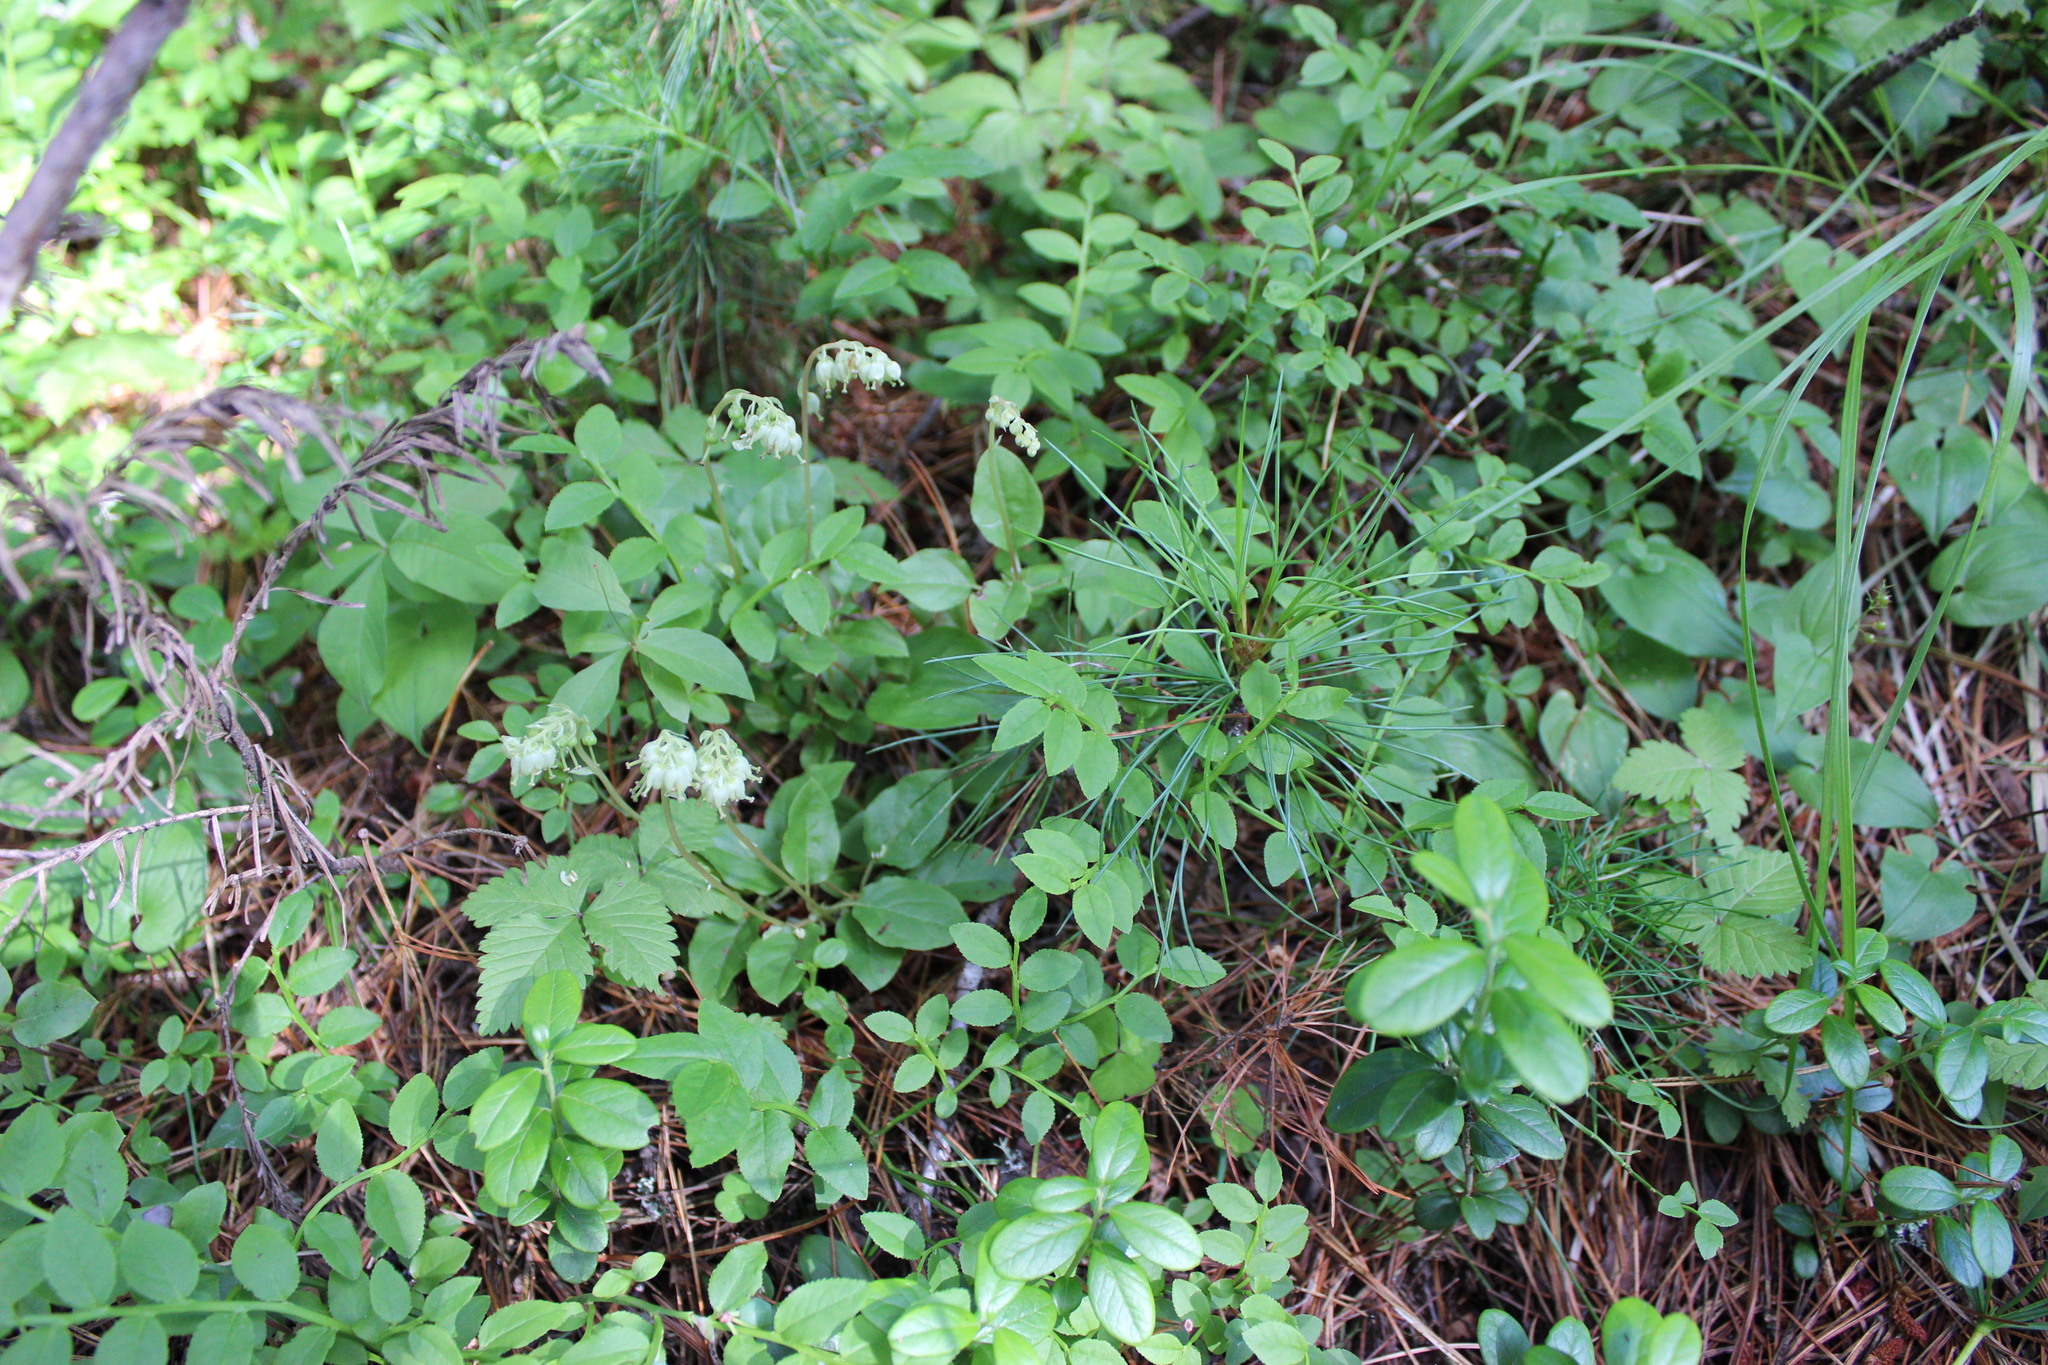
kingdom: Plantae
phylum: Tracheophyta
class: Magnoliopsida
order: Ericales
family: Ericaceae
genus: Orthilia
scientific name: Orthilia secunda
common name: One-sided orthilia
